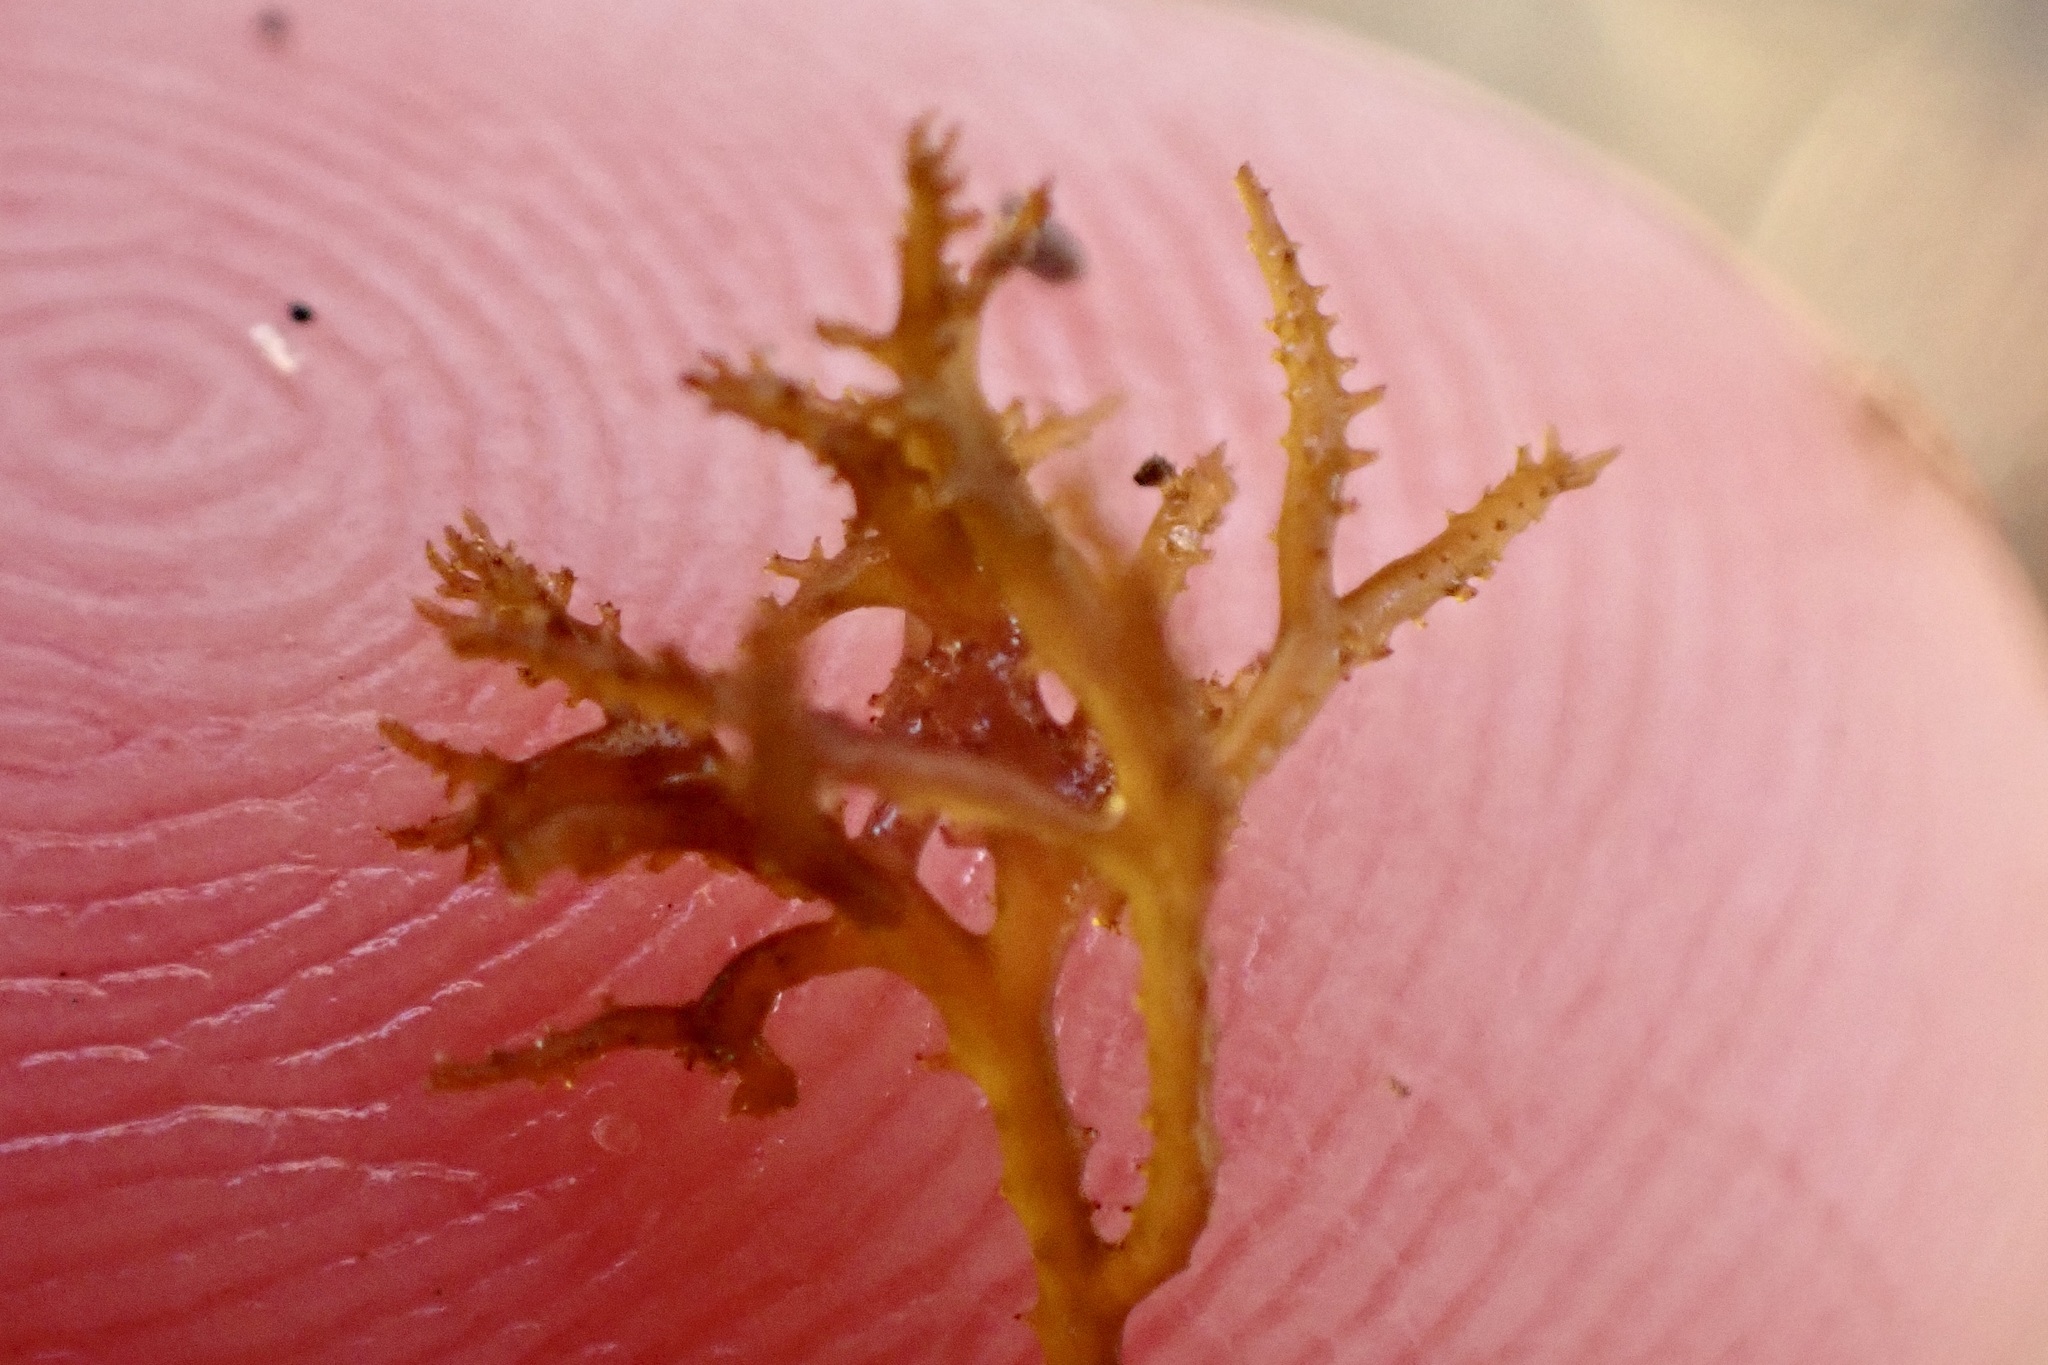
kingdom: Plantae
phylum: Rhodophyta
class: Florideophyceae
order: Gigartinales
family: Endocladiaceae
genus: Endocladia
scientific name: Endocladia muricata
